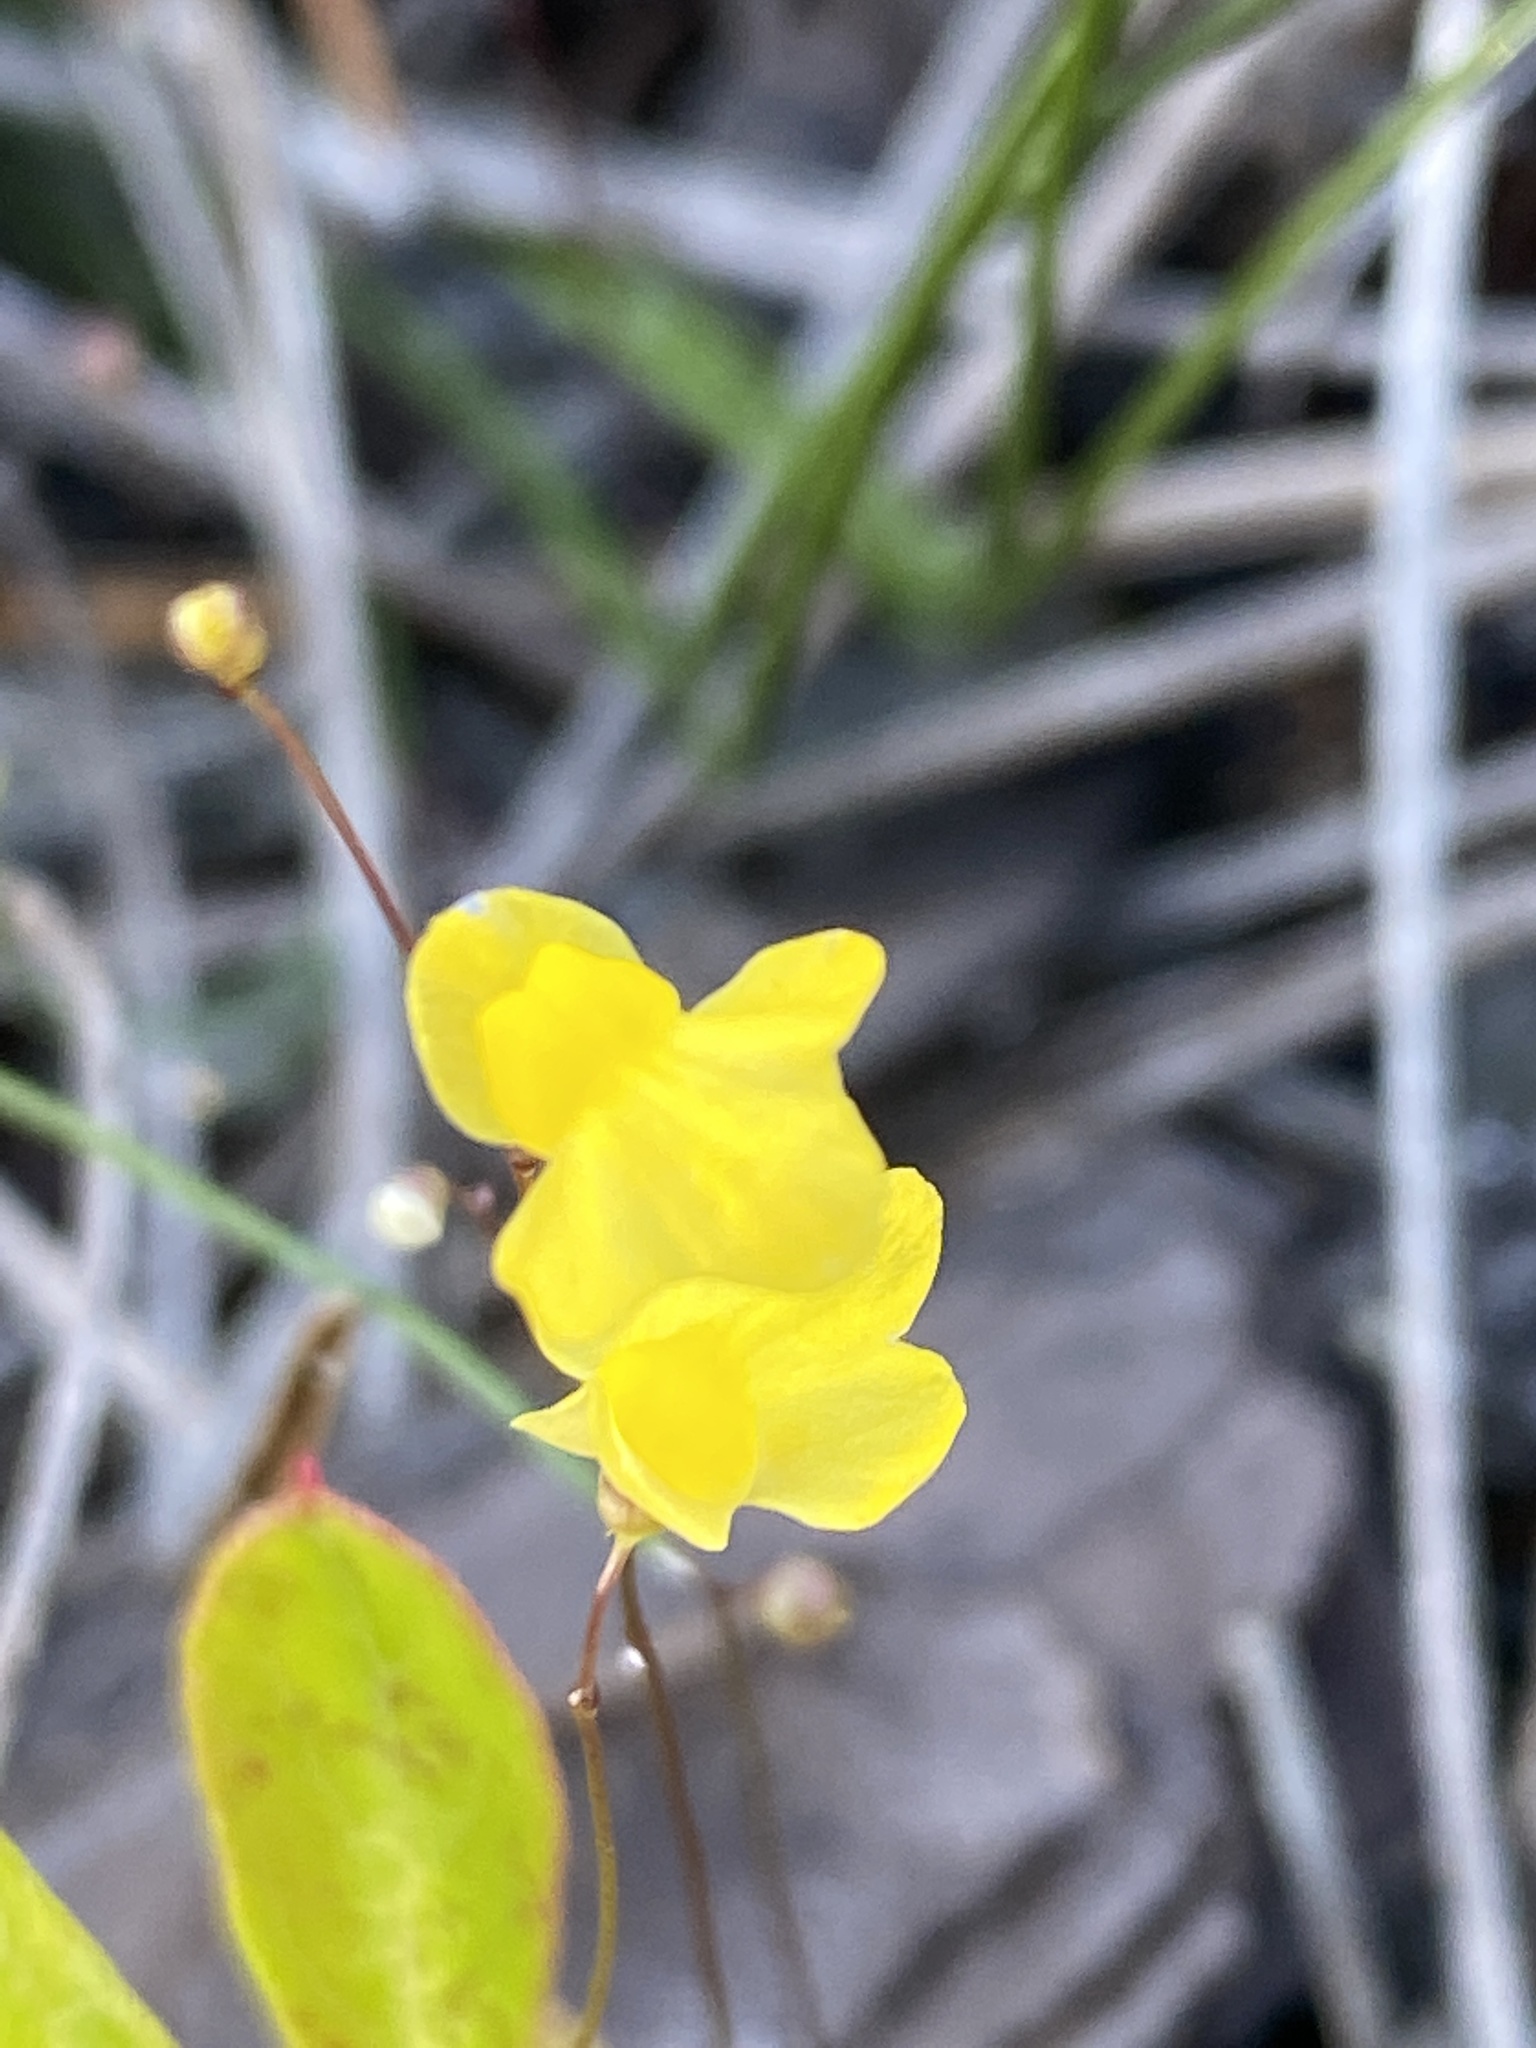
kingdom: Plantae
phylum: Tracheophyta
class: Magnoliopsida
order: Lamiales
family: Lentibulariaceae
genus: Utricularia
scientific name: Utricularia subulata
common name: Tiny bladderwort
